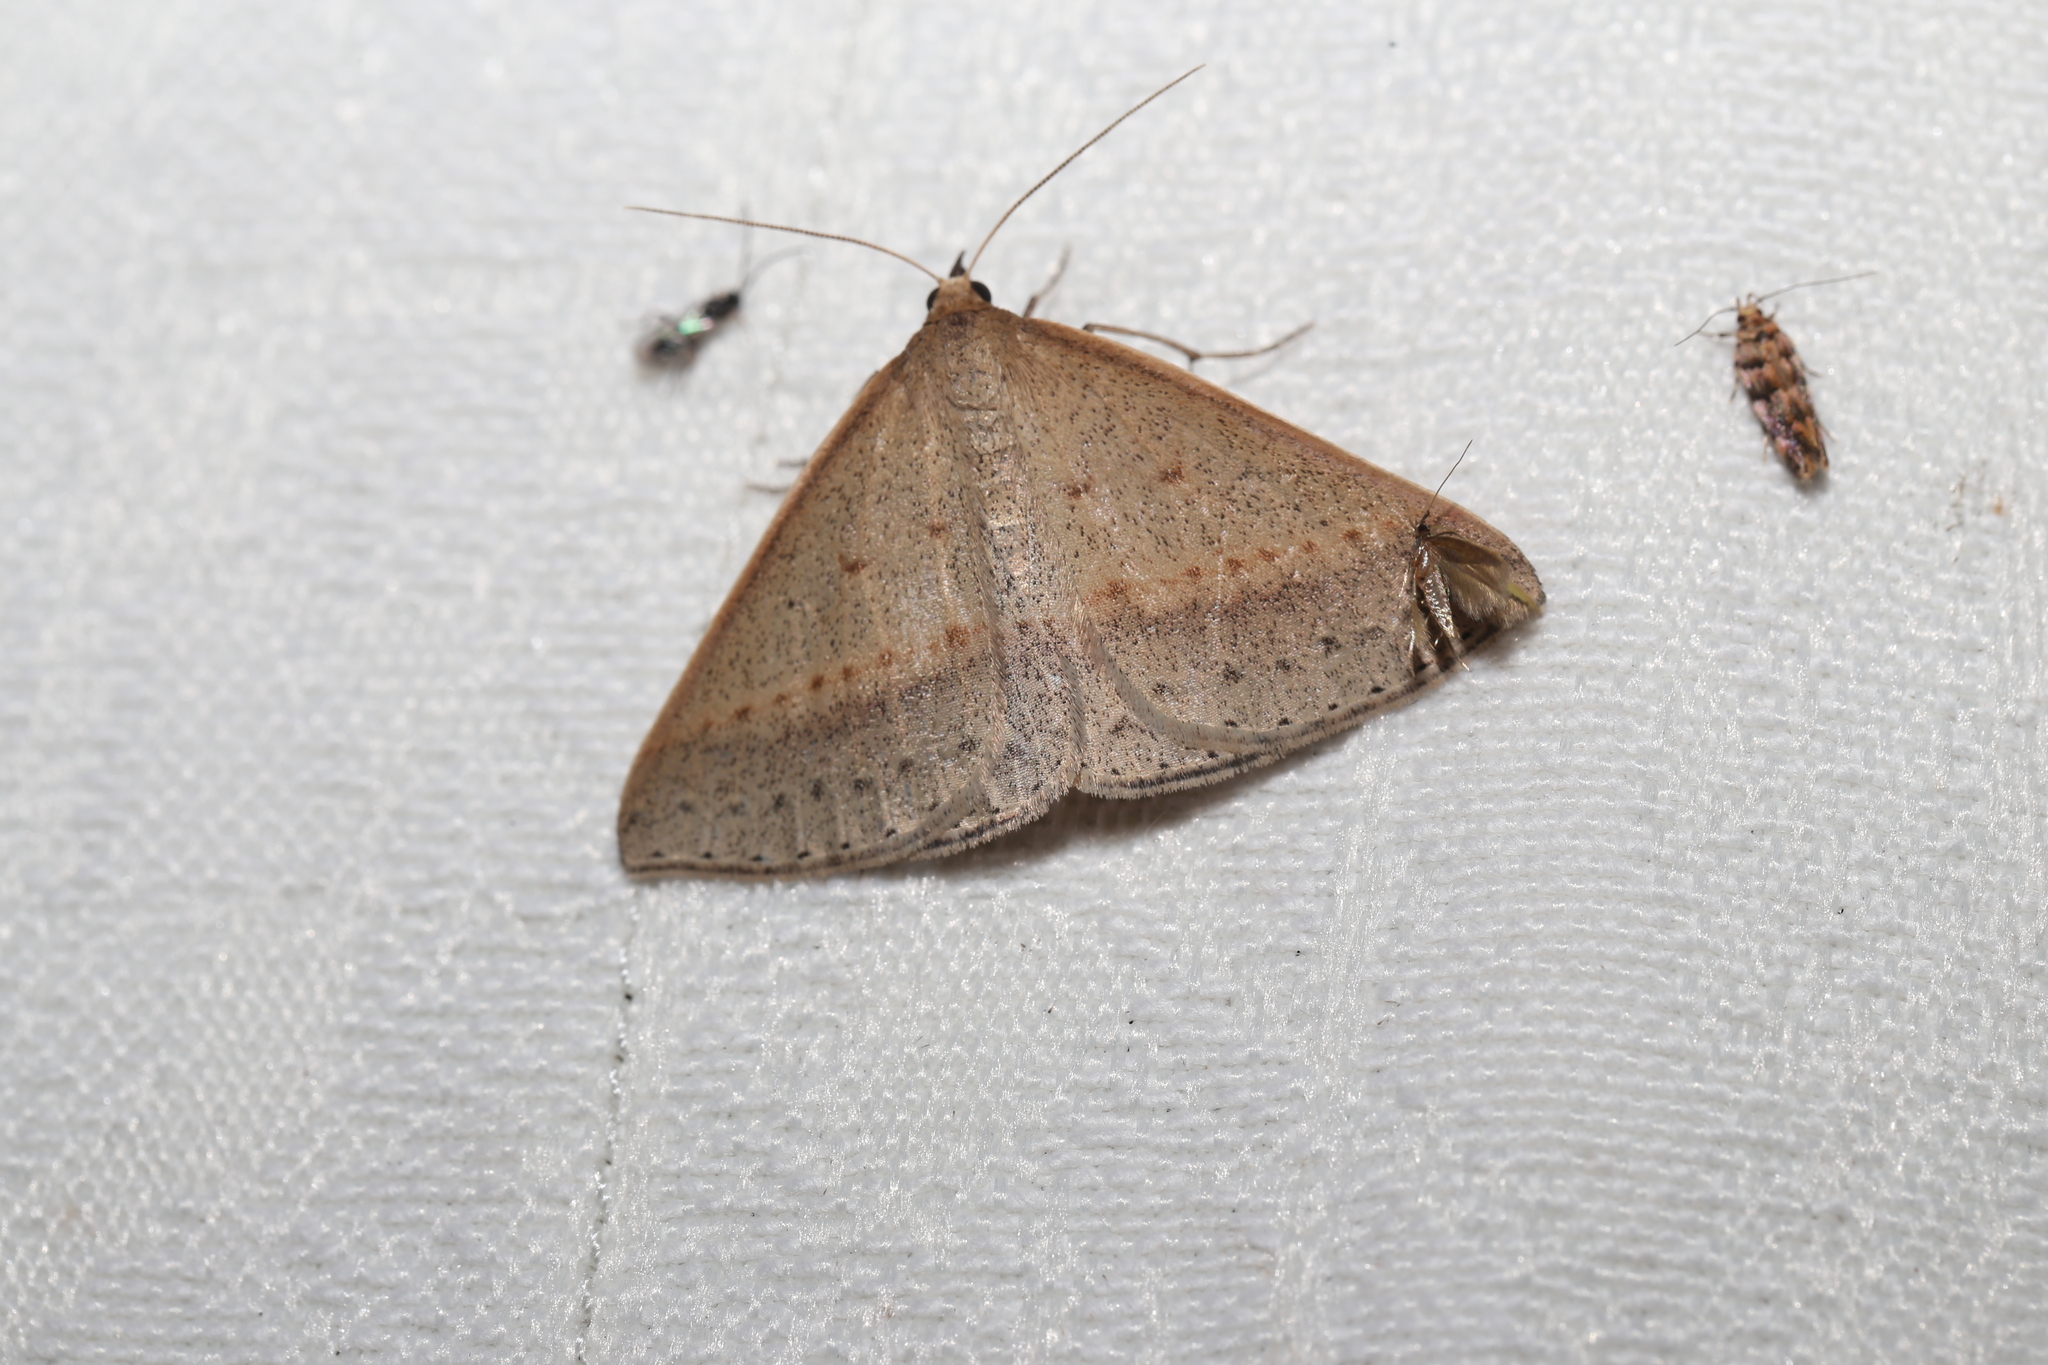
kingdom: Animalia
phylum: Arthropoda
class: Insecta
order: Lepidoptera
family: Geometridae
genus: Epidesmia
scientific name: Epidesmia tryxaria
